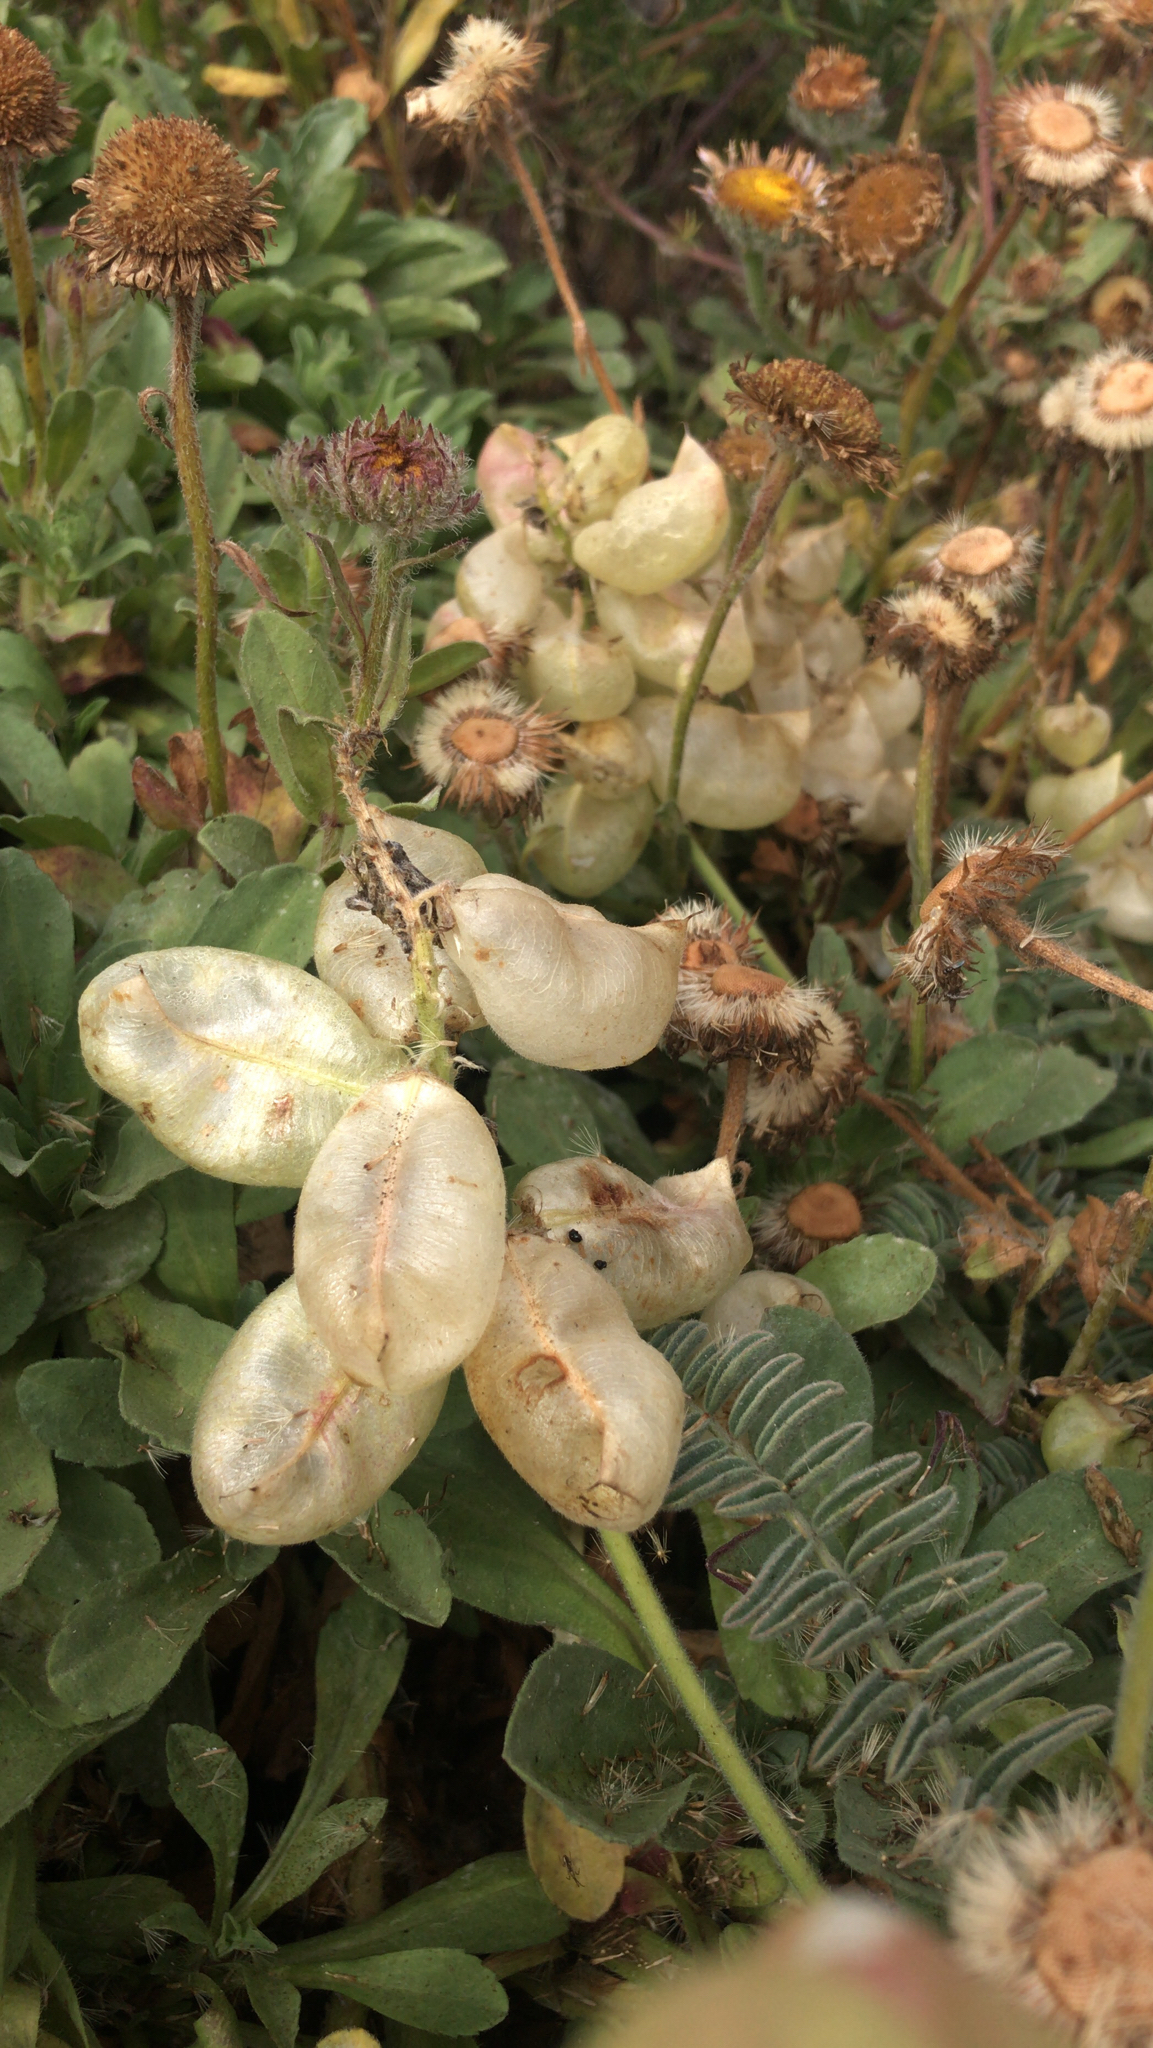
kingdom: Plantae
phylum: Tracheophyta
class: Magnoliopsida
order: Fabales
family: Fabaceae
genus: Astragalus
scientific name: Astragalus nuttallii
